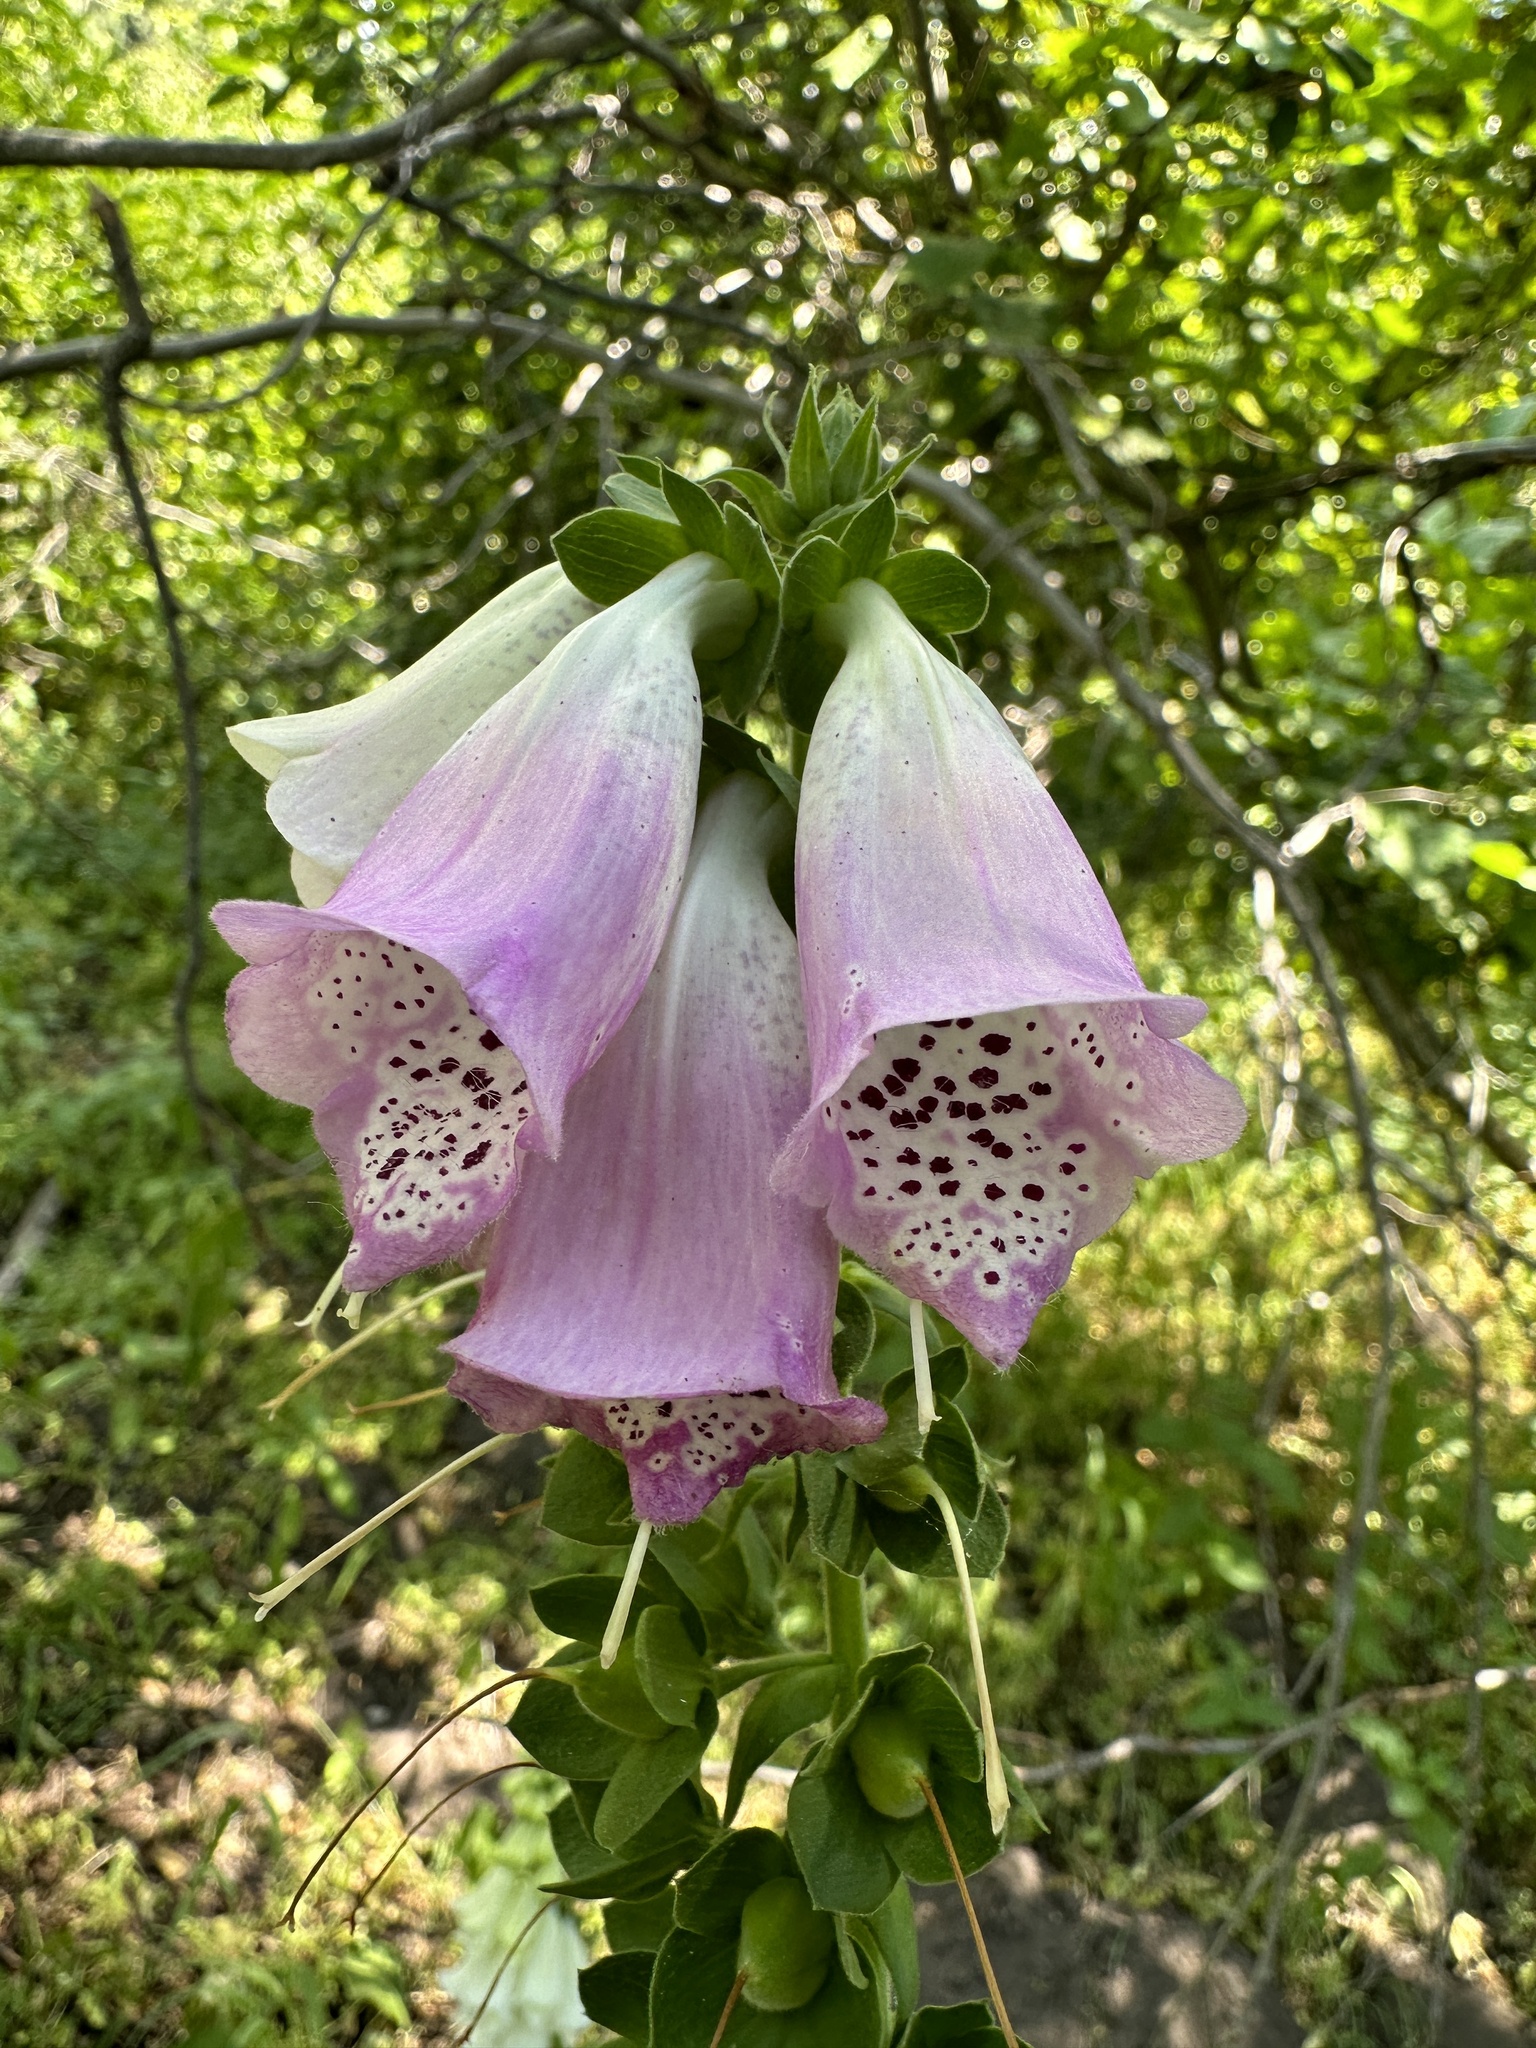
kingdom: Plantae
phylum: Tracheophyta
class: Magnoliopsida
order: Lamiales
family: Plantaginaceae
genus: Digitalis
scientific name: Digitalis purpurea
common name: Foxglove
